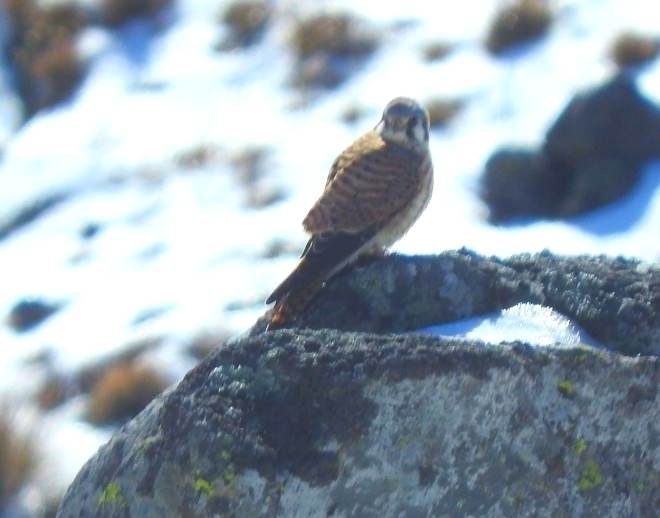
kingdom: Animalia
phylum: Chordata
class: Aves
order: Falconiformes
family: Falconidae
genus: Falco
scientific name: Falco sparverius
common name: American kestrel
